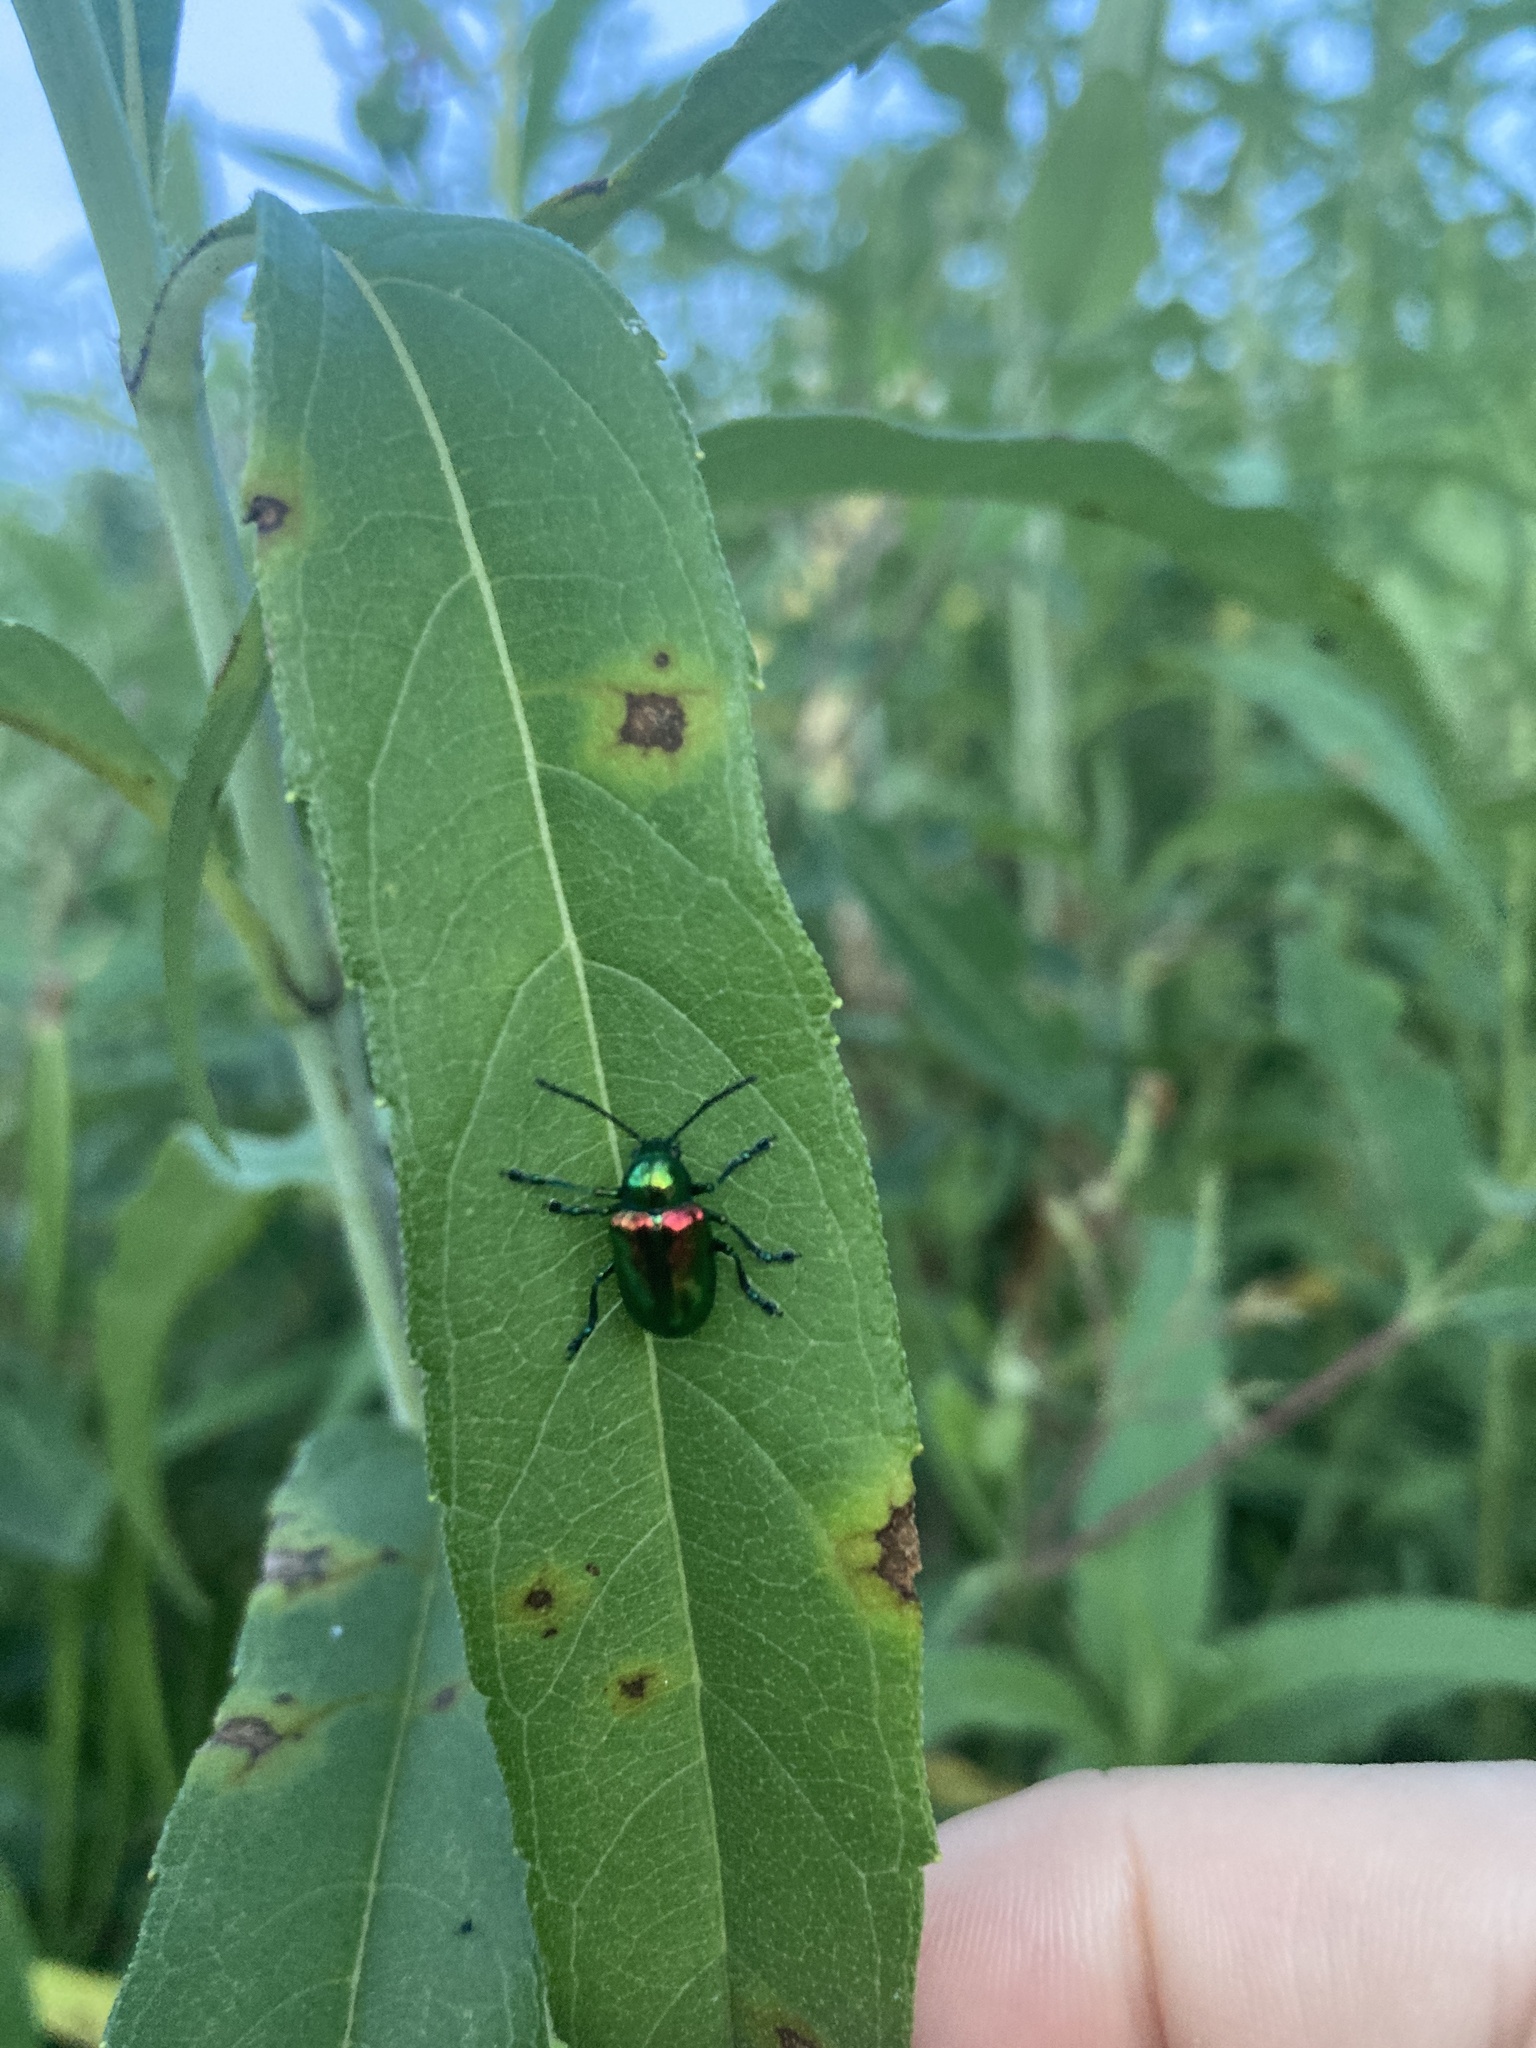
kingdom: Animalia
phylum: Arthropoda
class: Insecta
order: Coleoptera
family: Chrysomelidae
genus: Chrysochus
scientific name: Chrysochus auratus
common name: Dogbane leaf beetle
